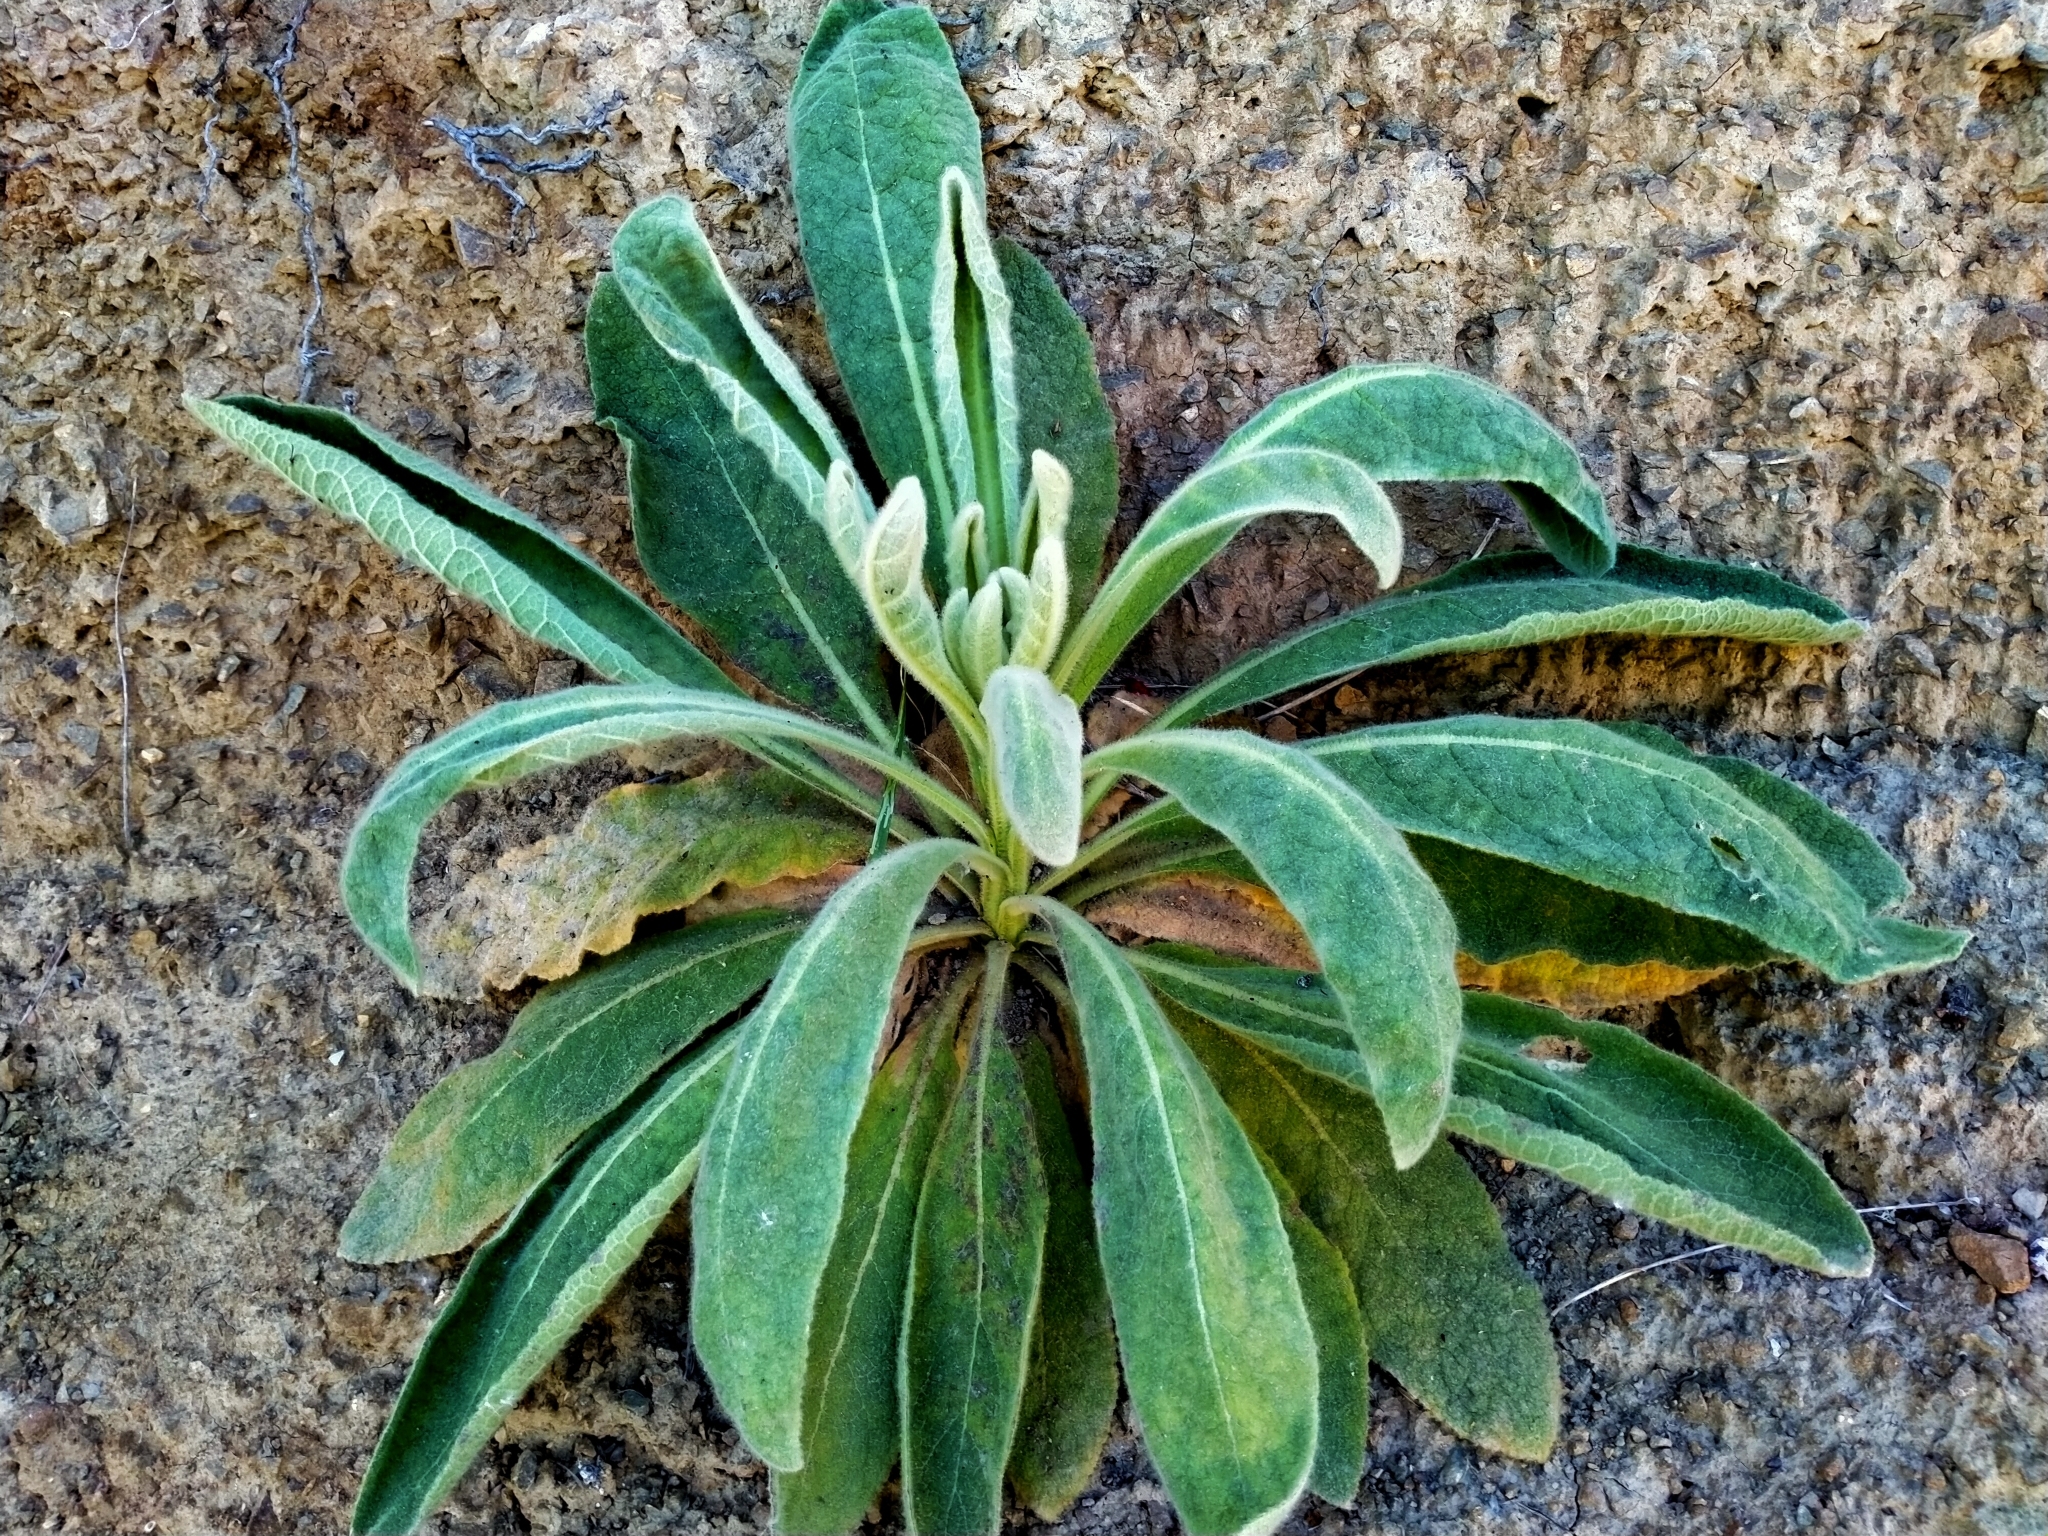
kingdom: Plantae
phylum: Tracheophyta
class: Magnoliopsida
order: Lamiales
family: Scrophulariaceae
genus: Verbascum
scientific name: Verbascum thapsus
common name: Common mullein
